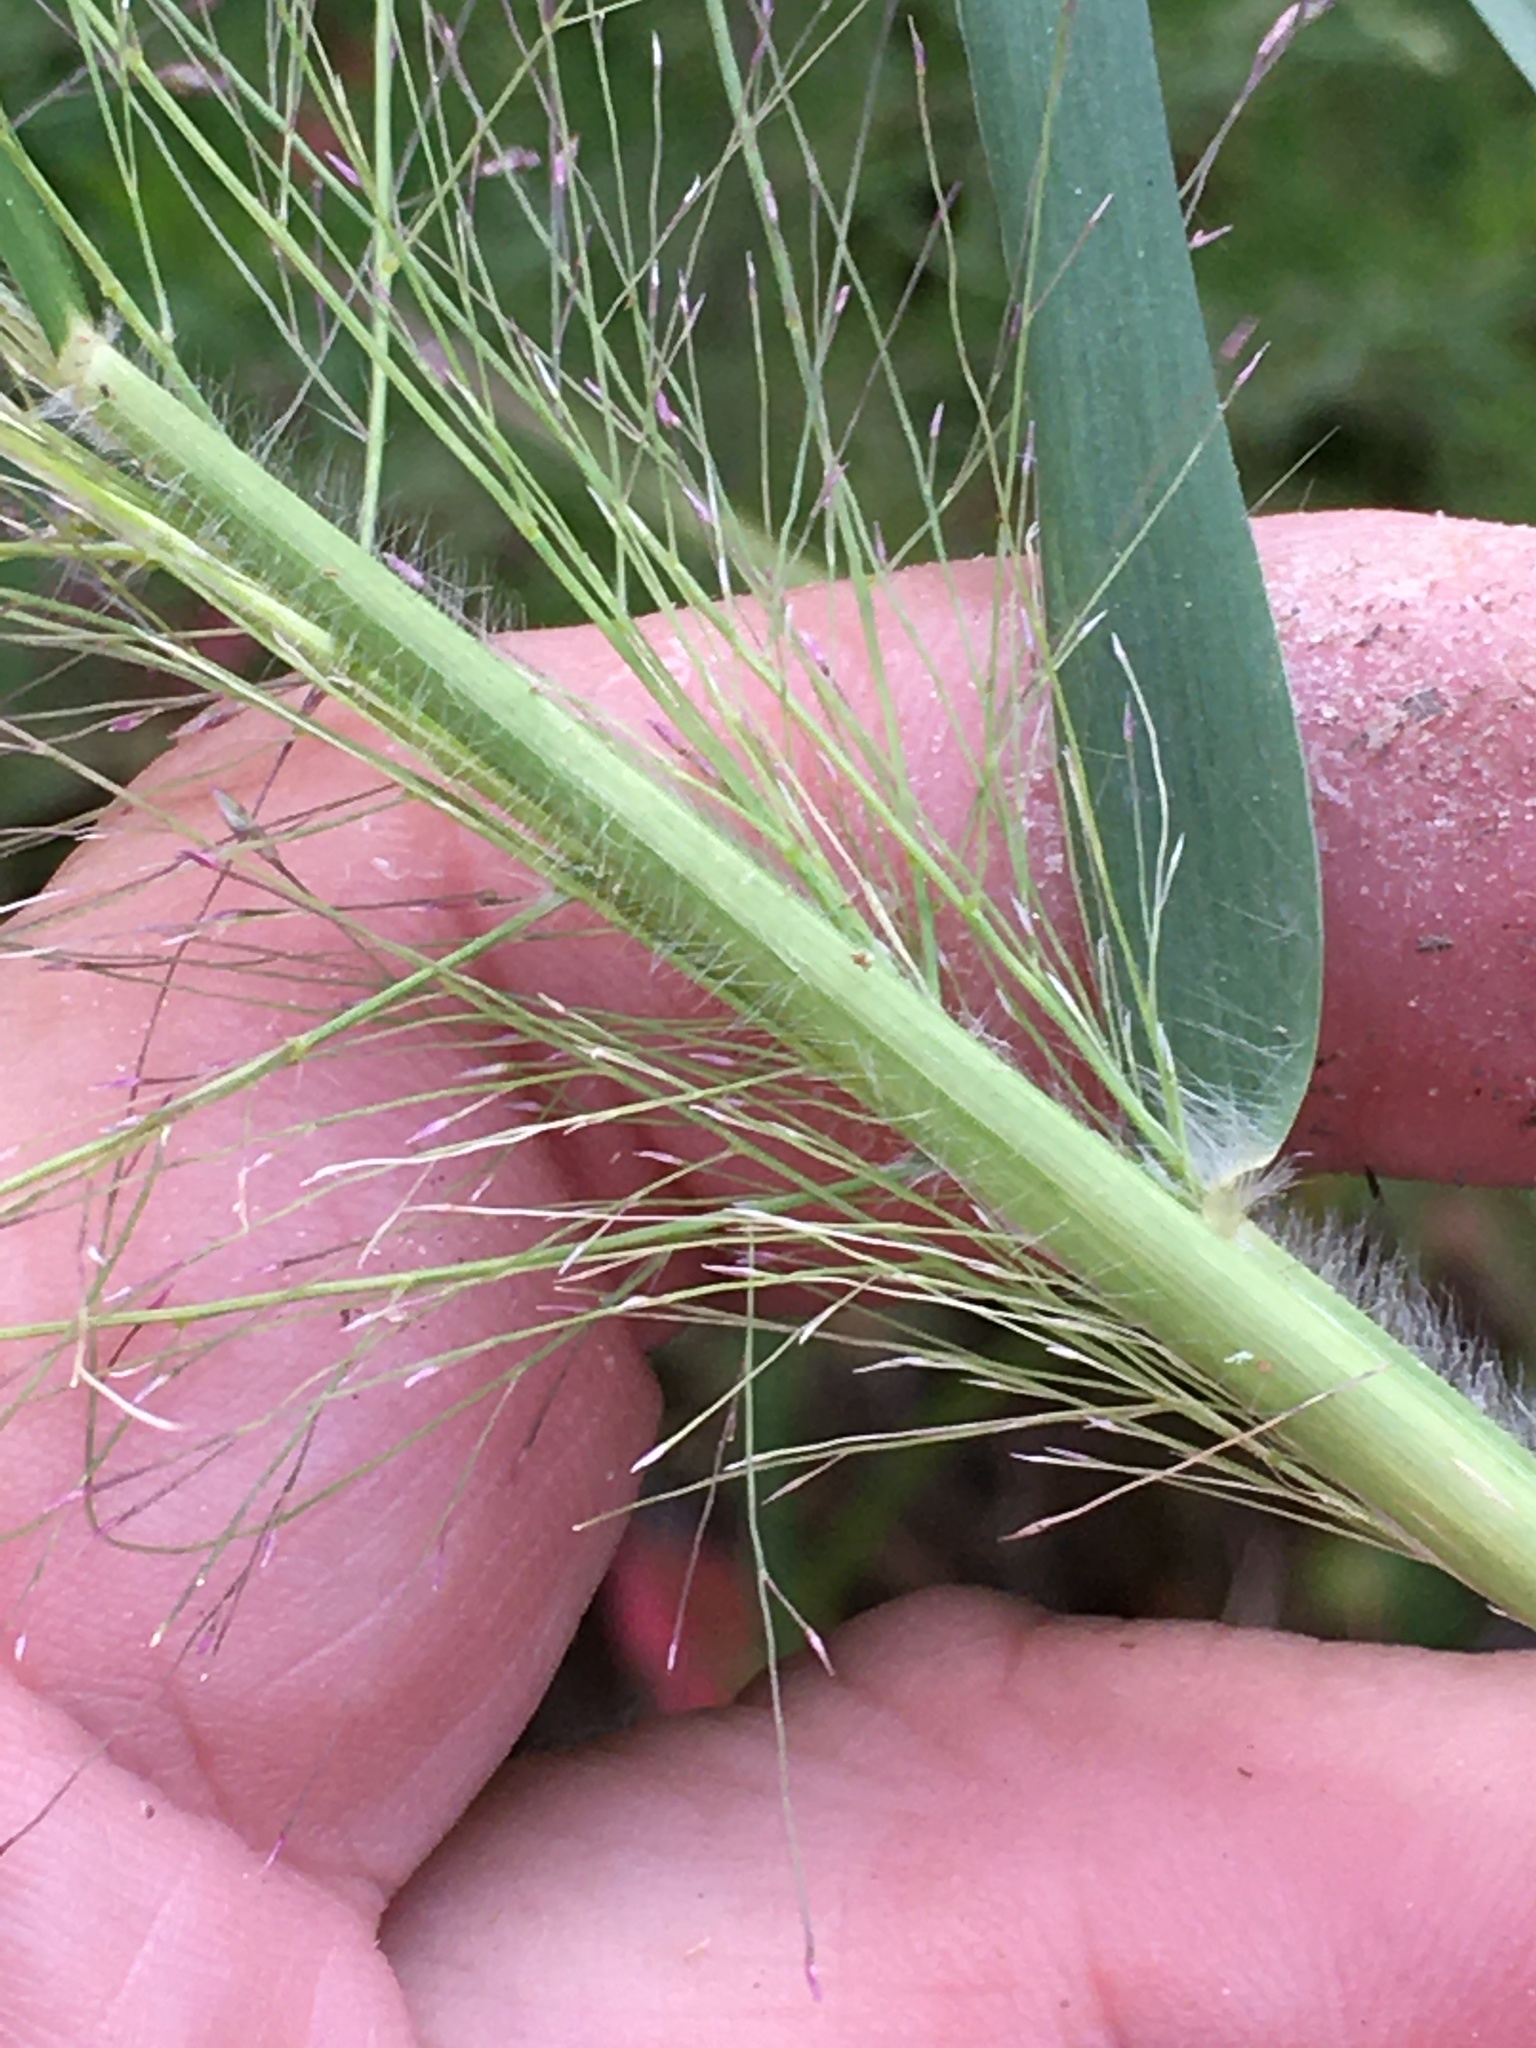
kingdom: Plantae
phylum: Tracheophyta
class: Liliopsida
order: Poales
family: Poaceae
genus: Eragrostis
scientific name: Eragrostis spectabilis
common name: Petticoat-climber
